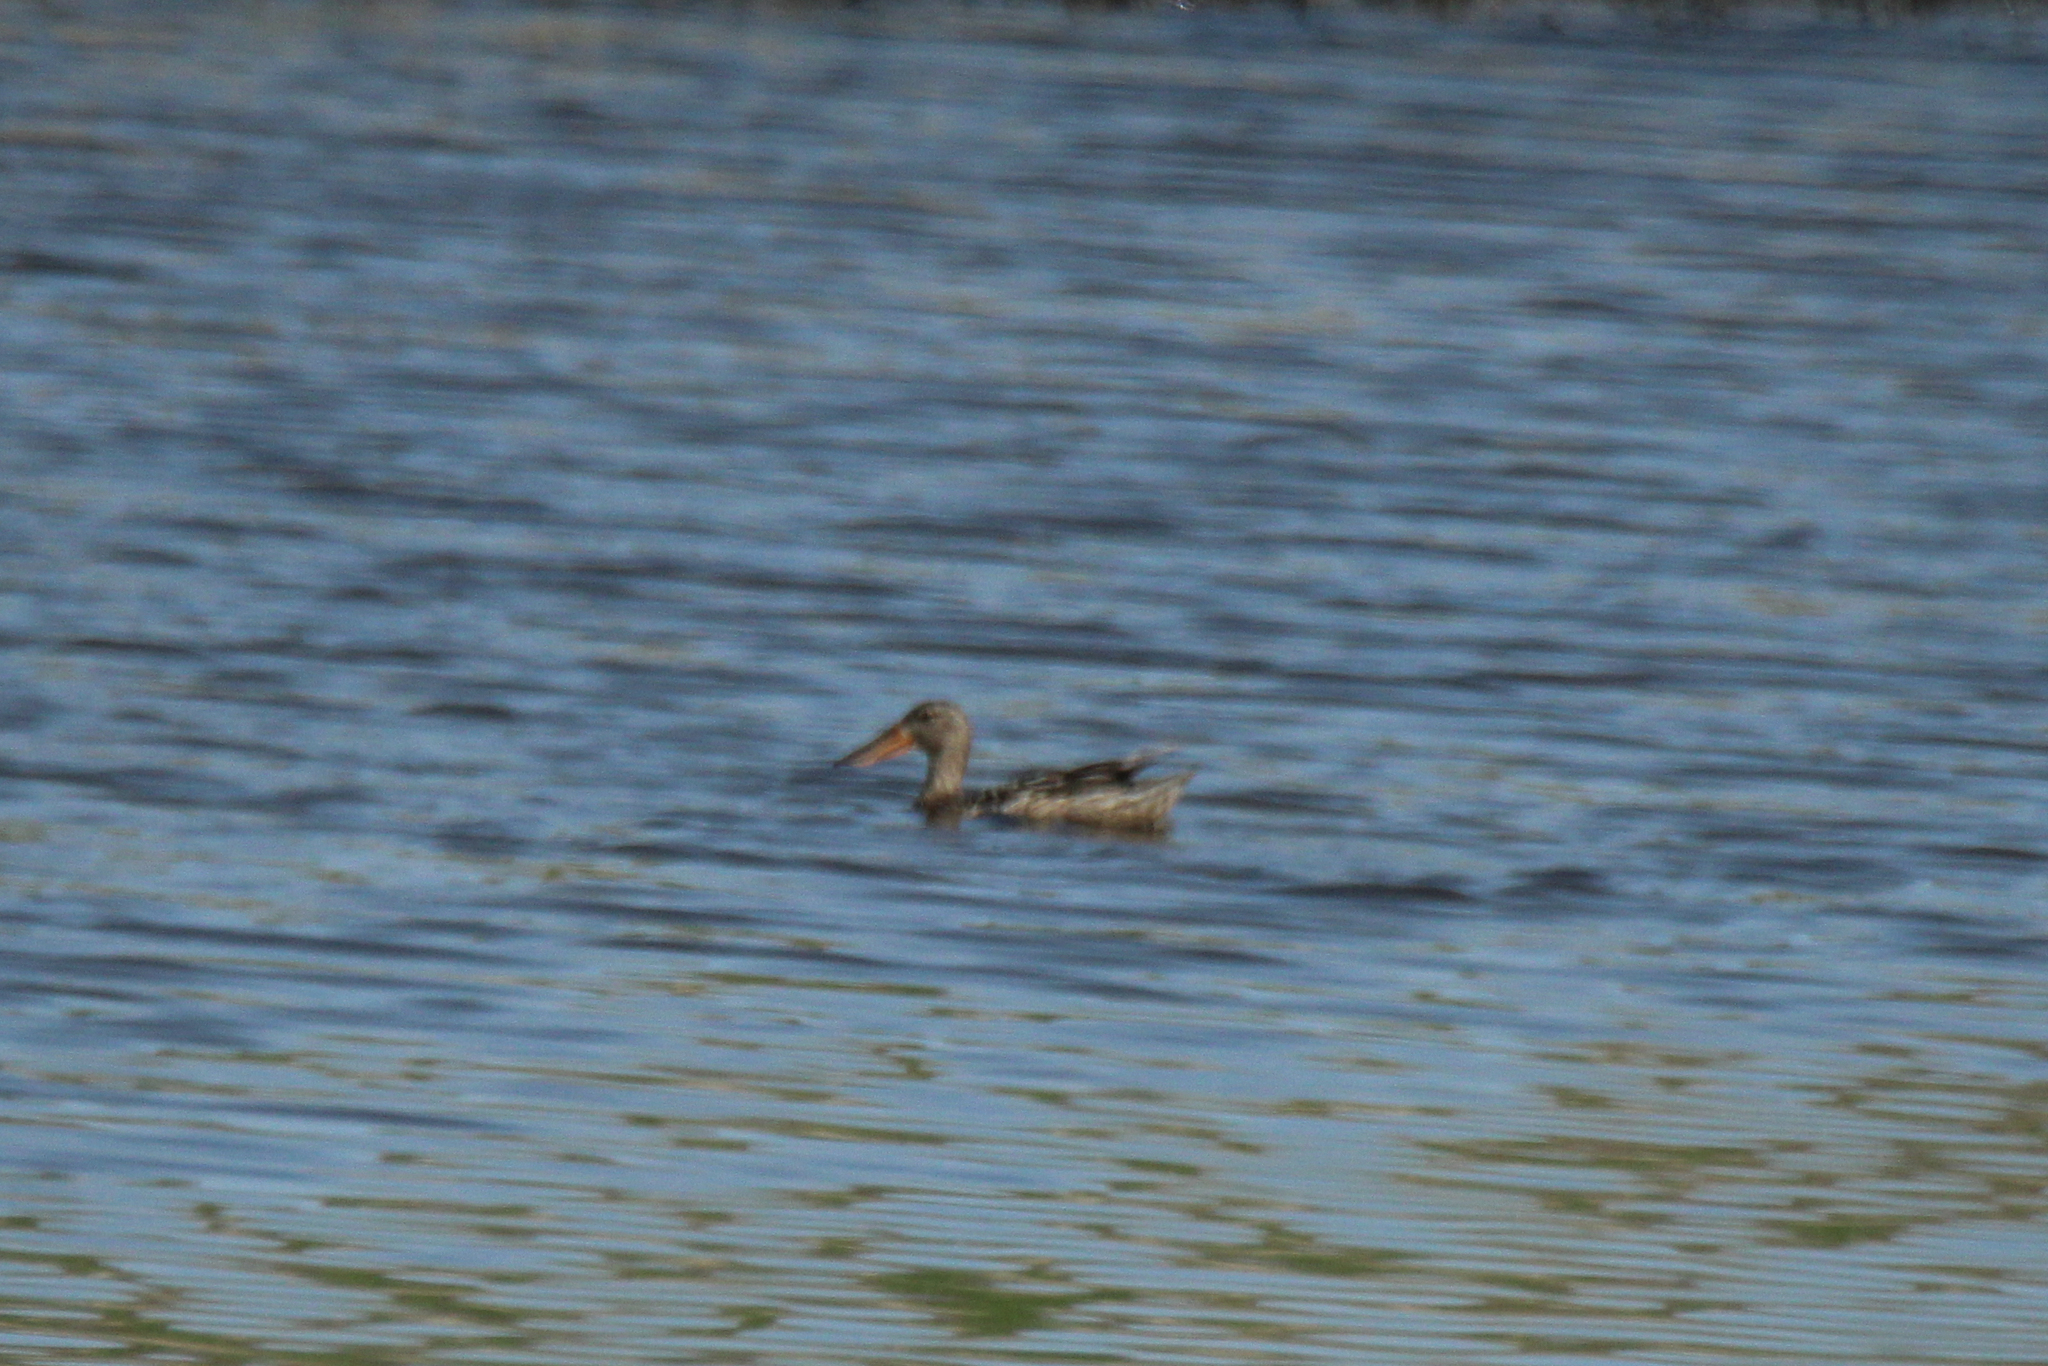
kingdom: Animalia
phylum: Chordata
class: Aves
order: Anseriformes
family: Anatidae
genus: Spatula
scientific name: Spatula clypeata
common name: Northern shoveler
